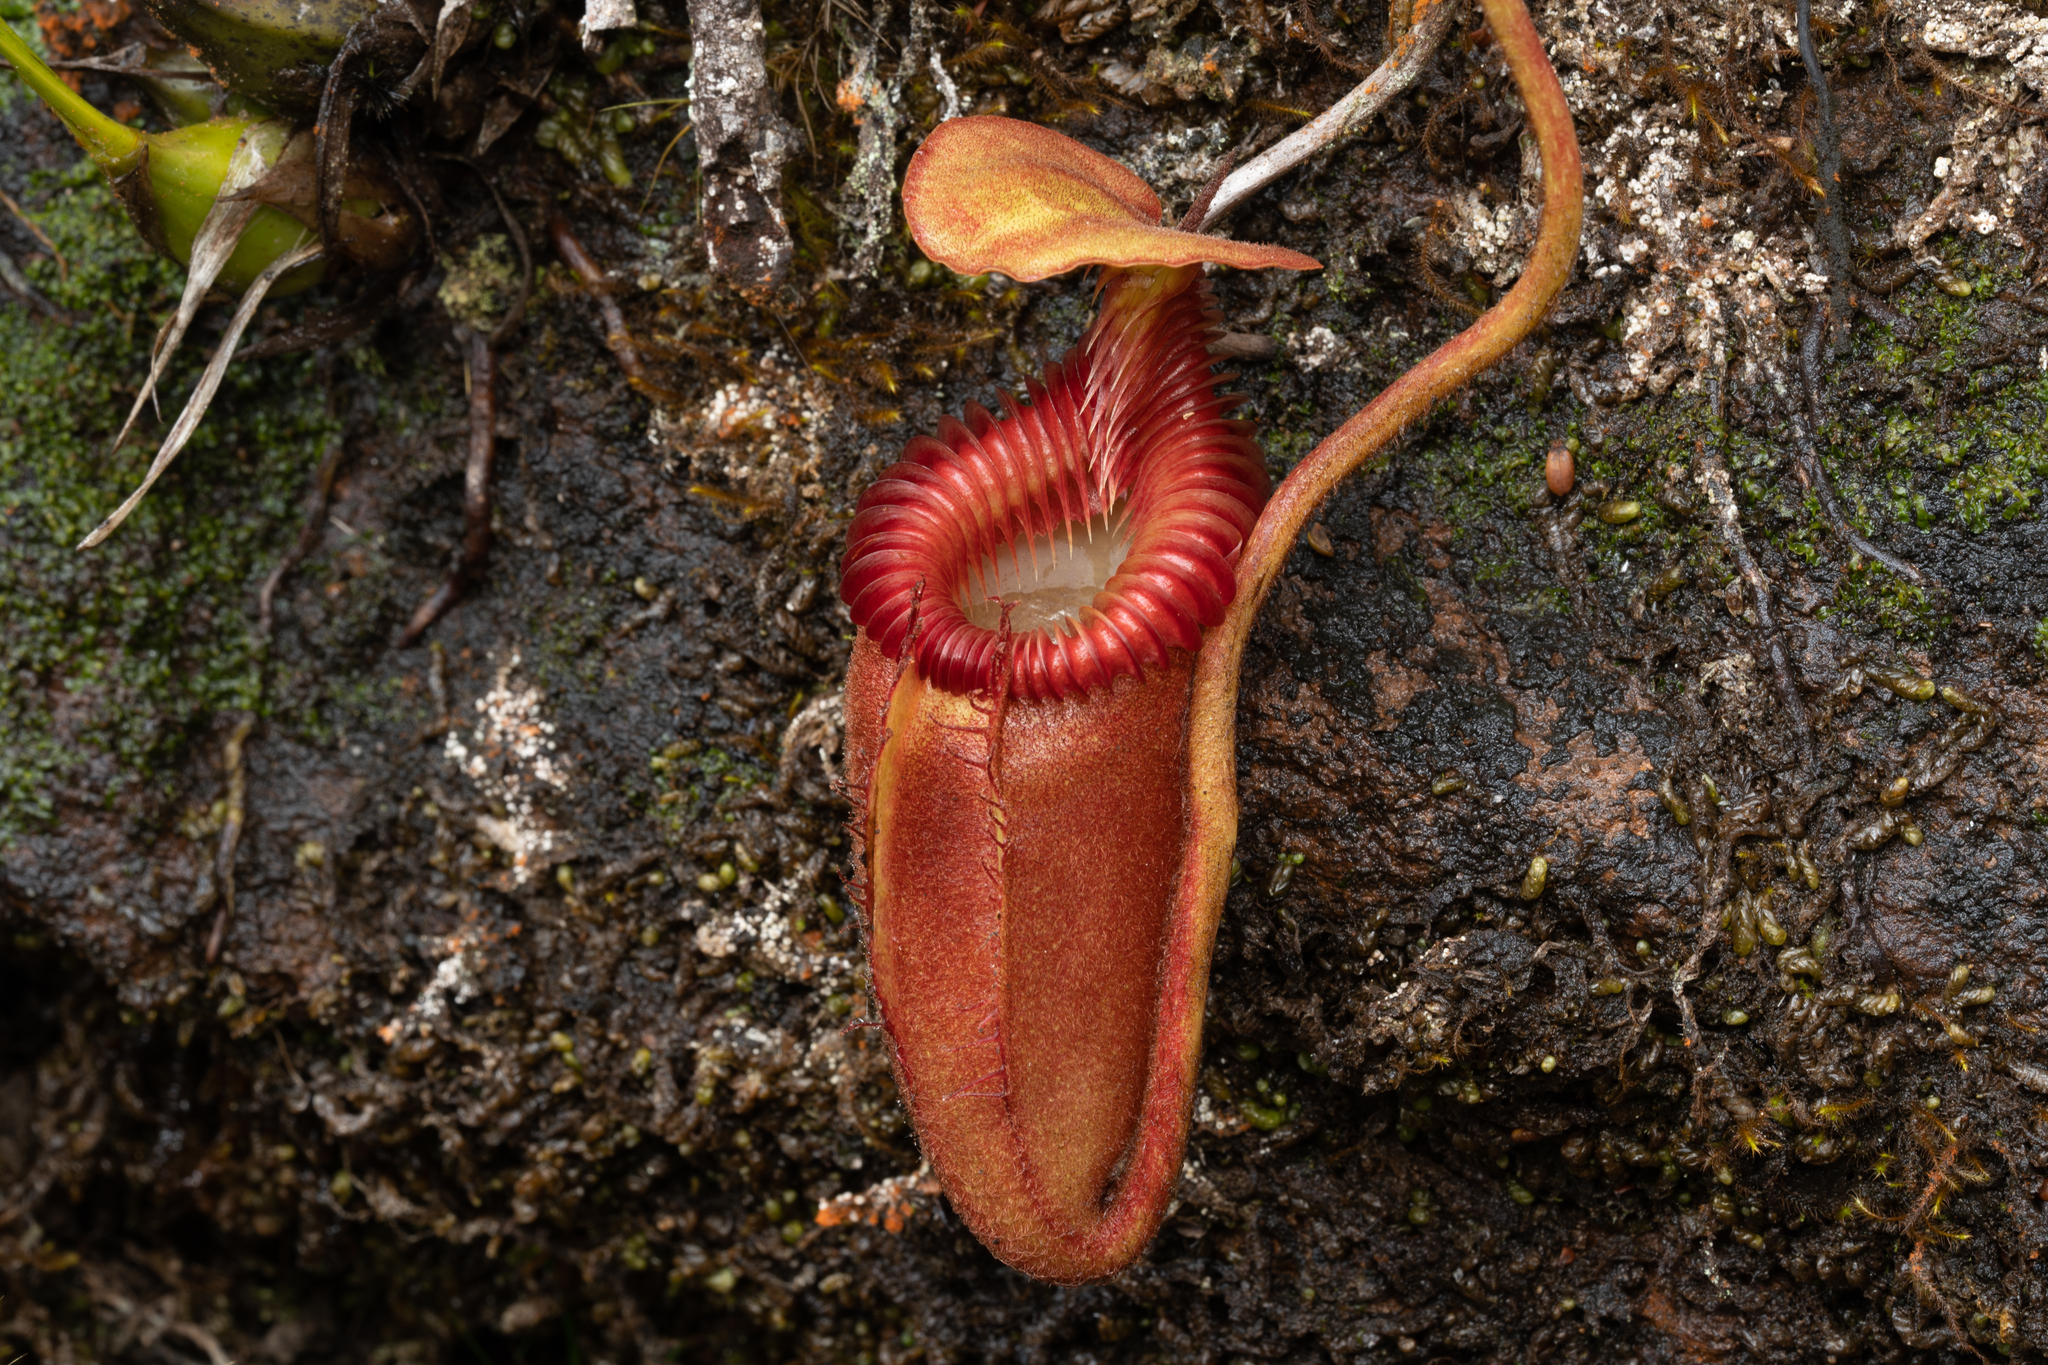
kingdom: Plantae
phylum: Tracheophyta
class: Magnoliopsida
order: Caryophyllales
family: Nepenthaceae
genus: Nepenthes
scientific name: Nepenthes villosa
